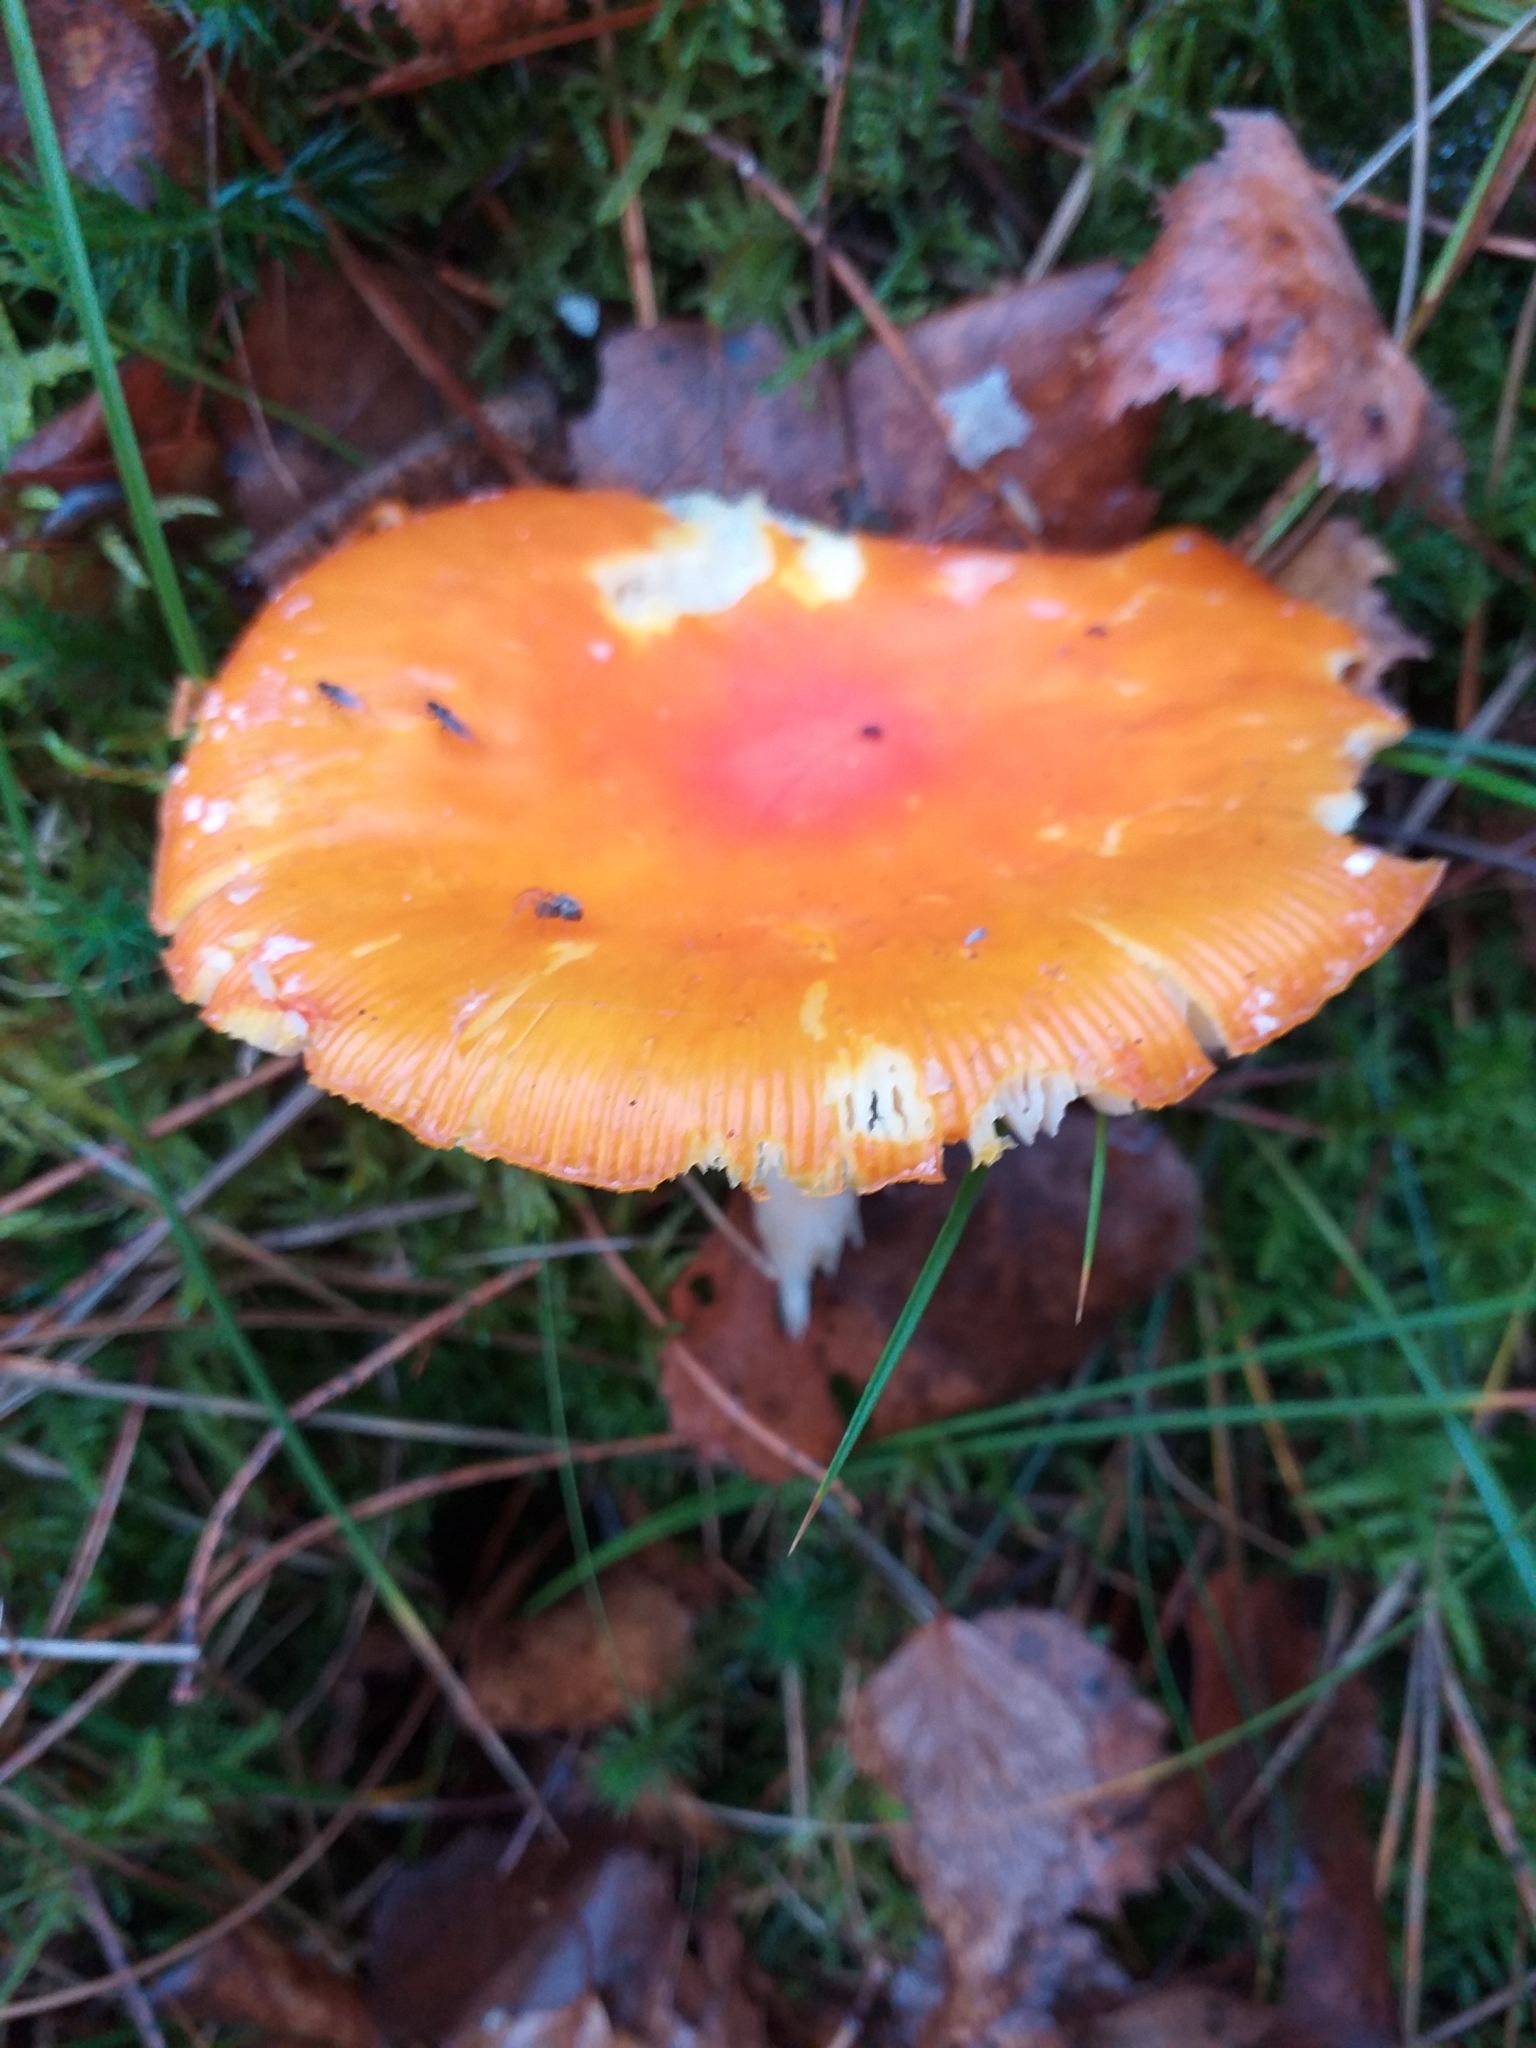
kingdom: Fungi
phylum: Basidiomycota
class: Agaricomycetes
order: Agaricales
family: Amanitaceae
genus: Amanita
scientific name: Amanita muscaria
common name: Fly agaric
